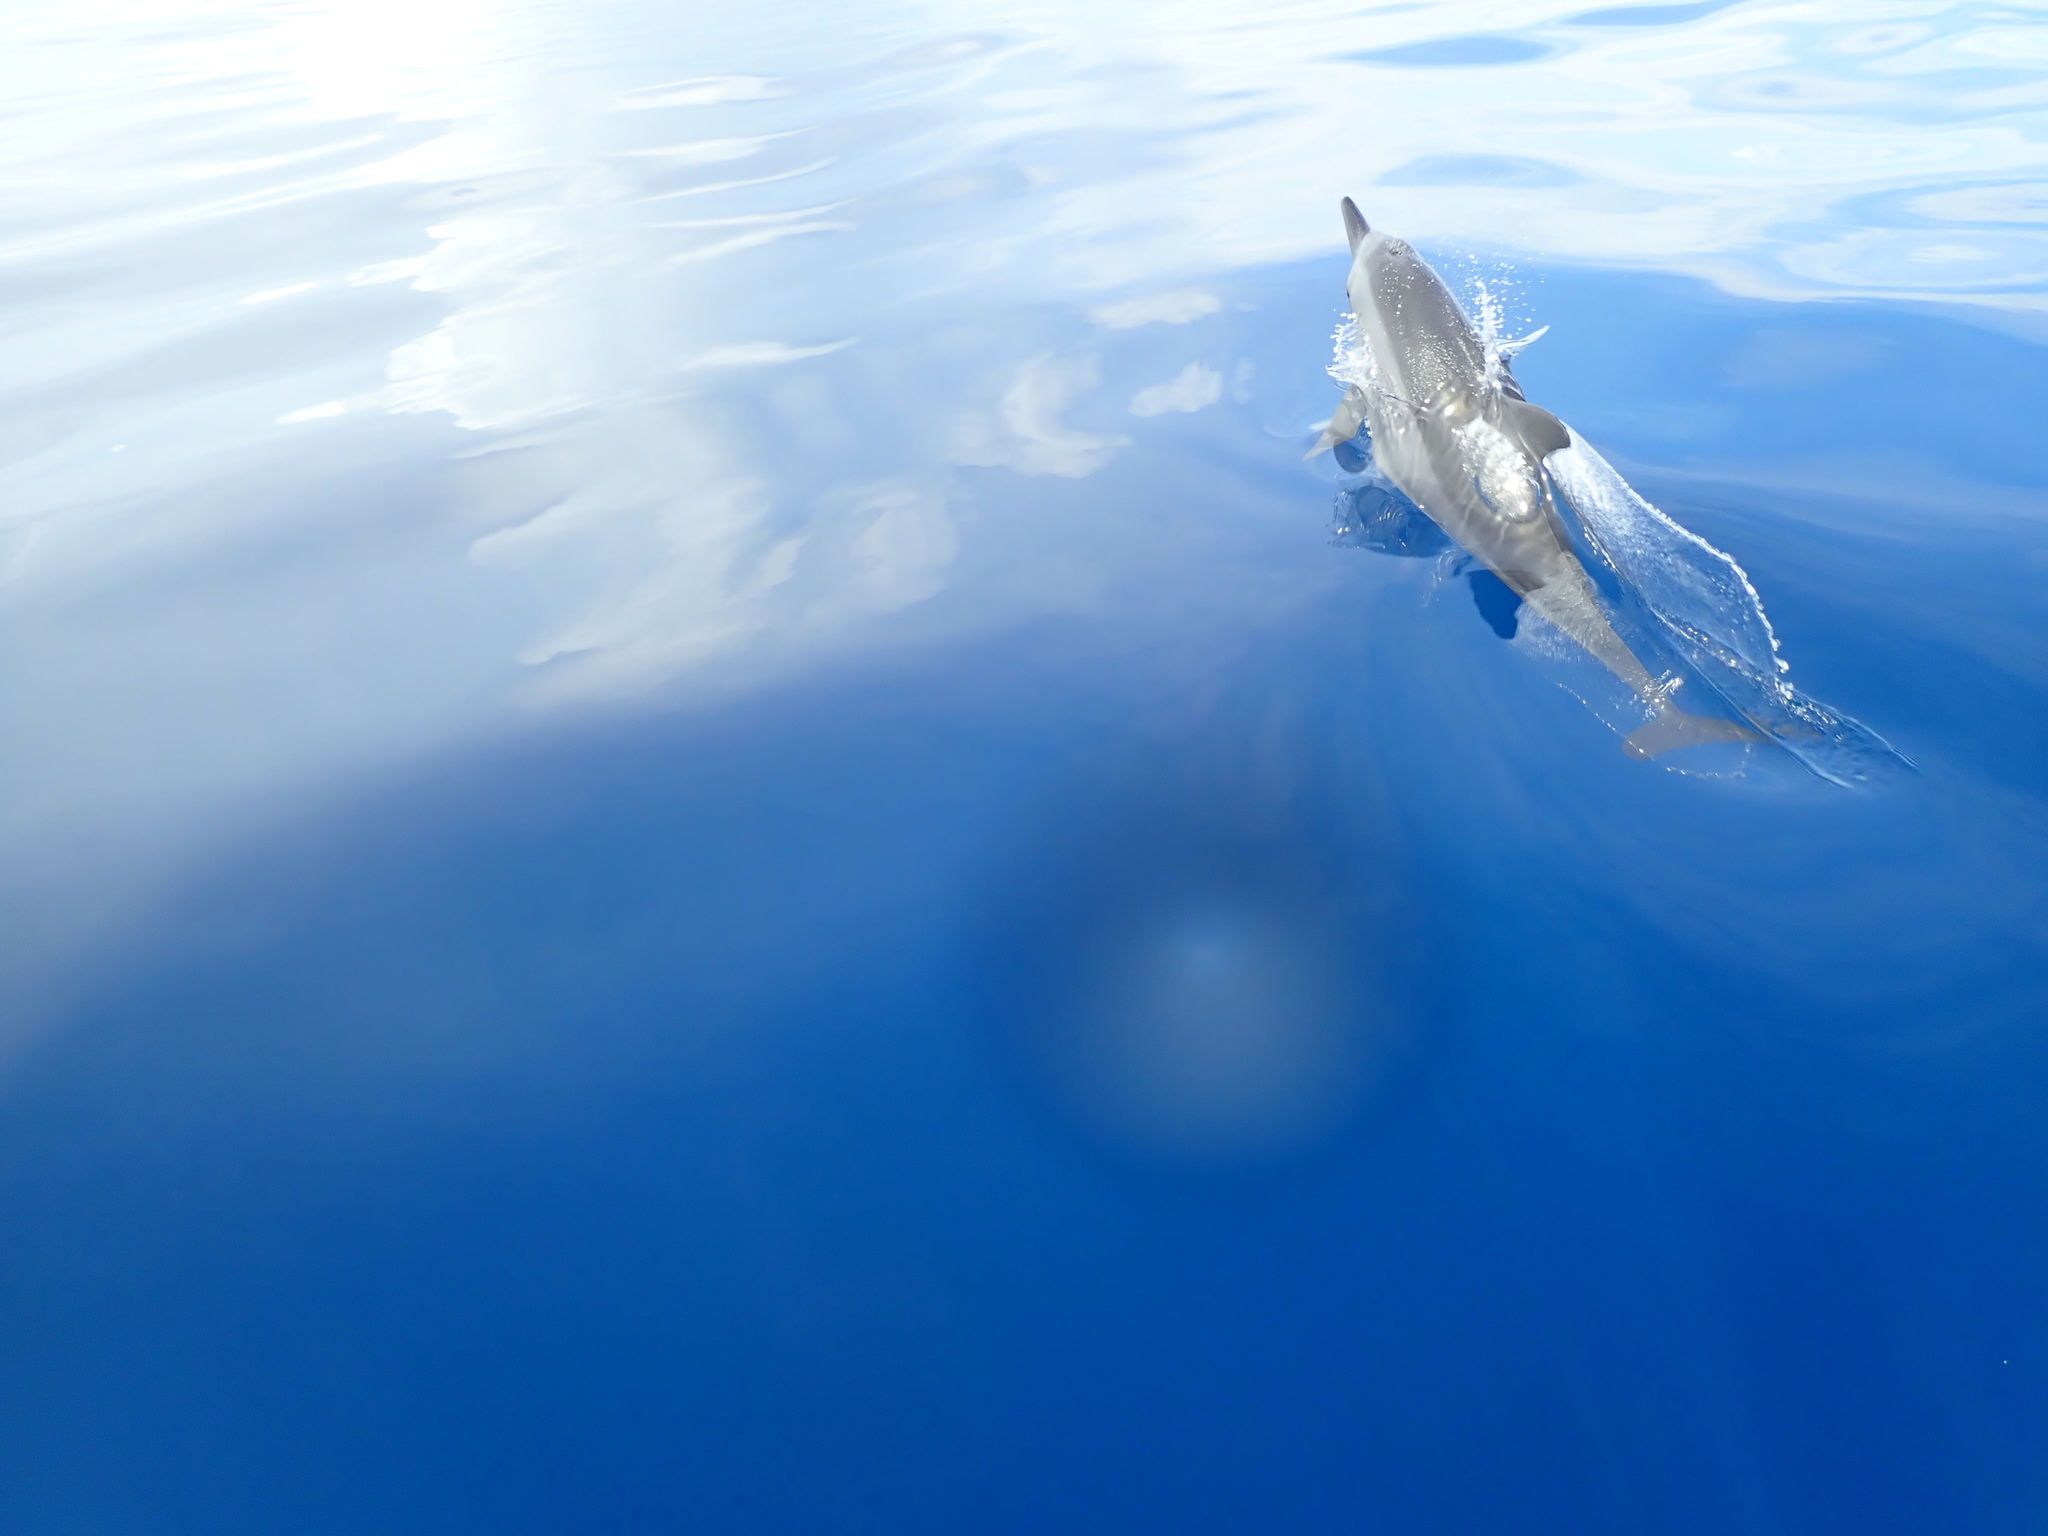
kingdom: Animalia
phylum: Chordata
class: Mammalia
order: Cetacea
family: Delphinidae
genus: Stenella
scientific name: Stenella longirostris
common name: Spinner dolphin
